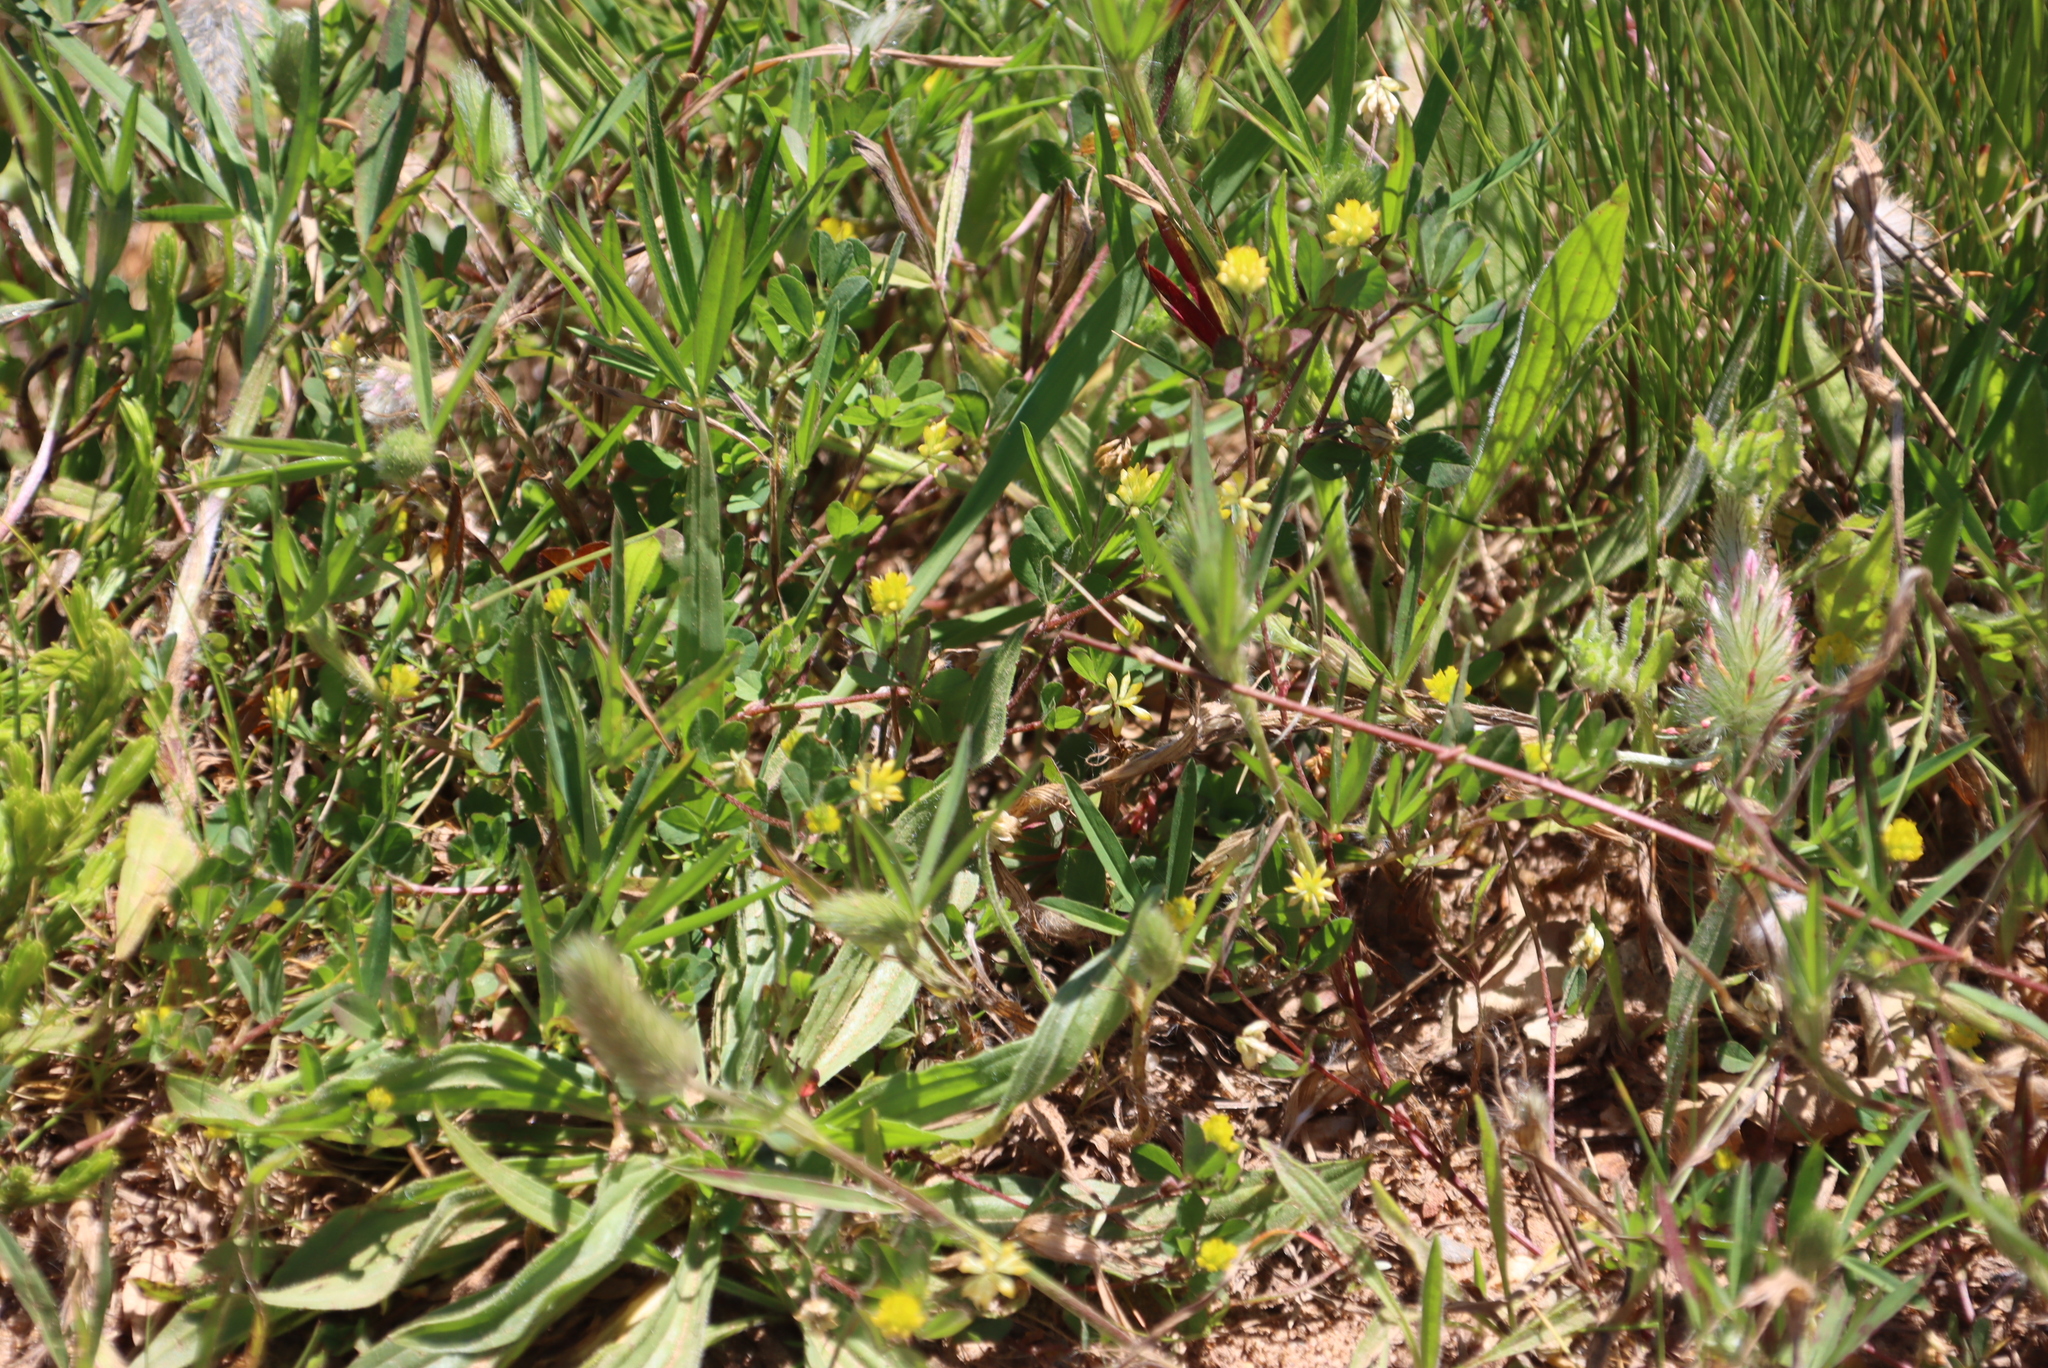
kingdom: Plantae
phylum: Tracheophyta
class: Magnoliopsida
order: Fabales
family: Fabaceae
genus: Trifolium
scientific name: Trifolium dubium
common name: Suckling clover
